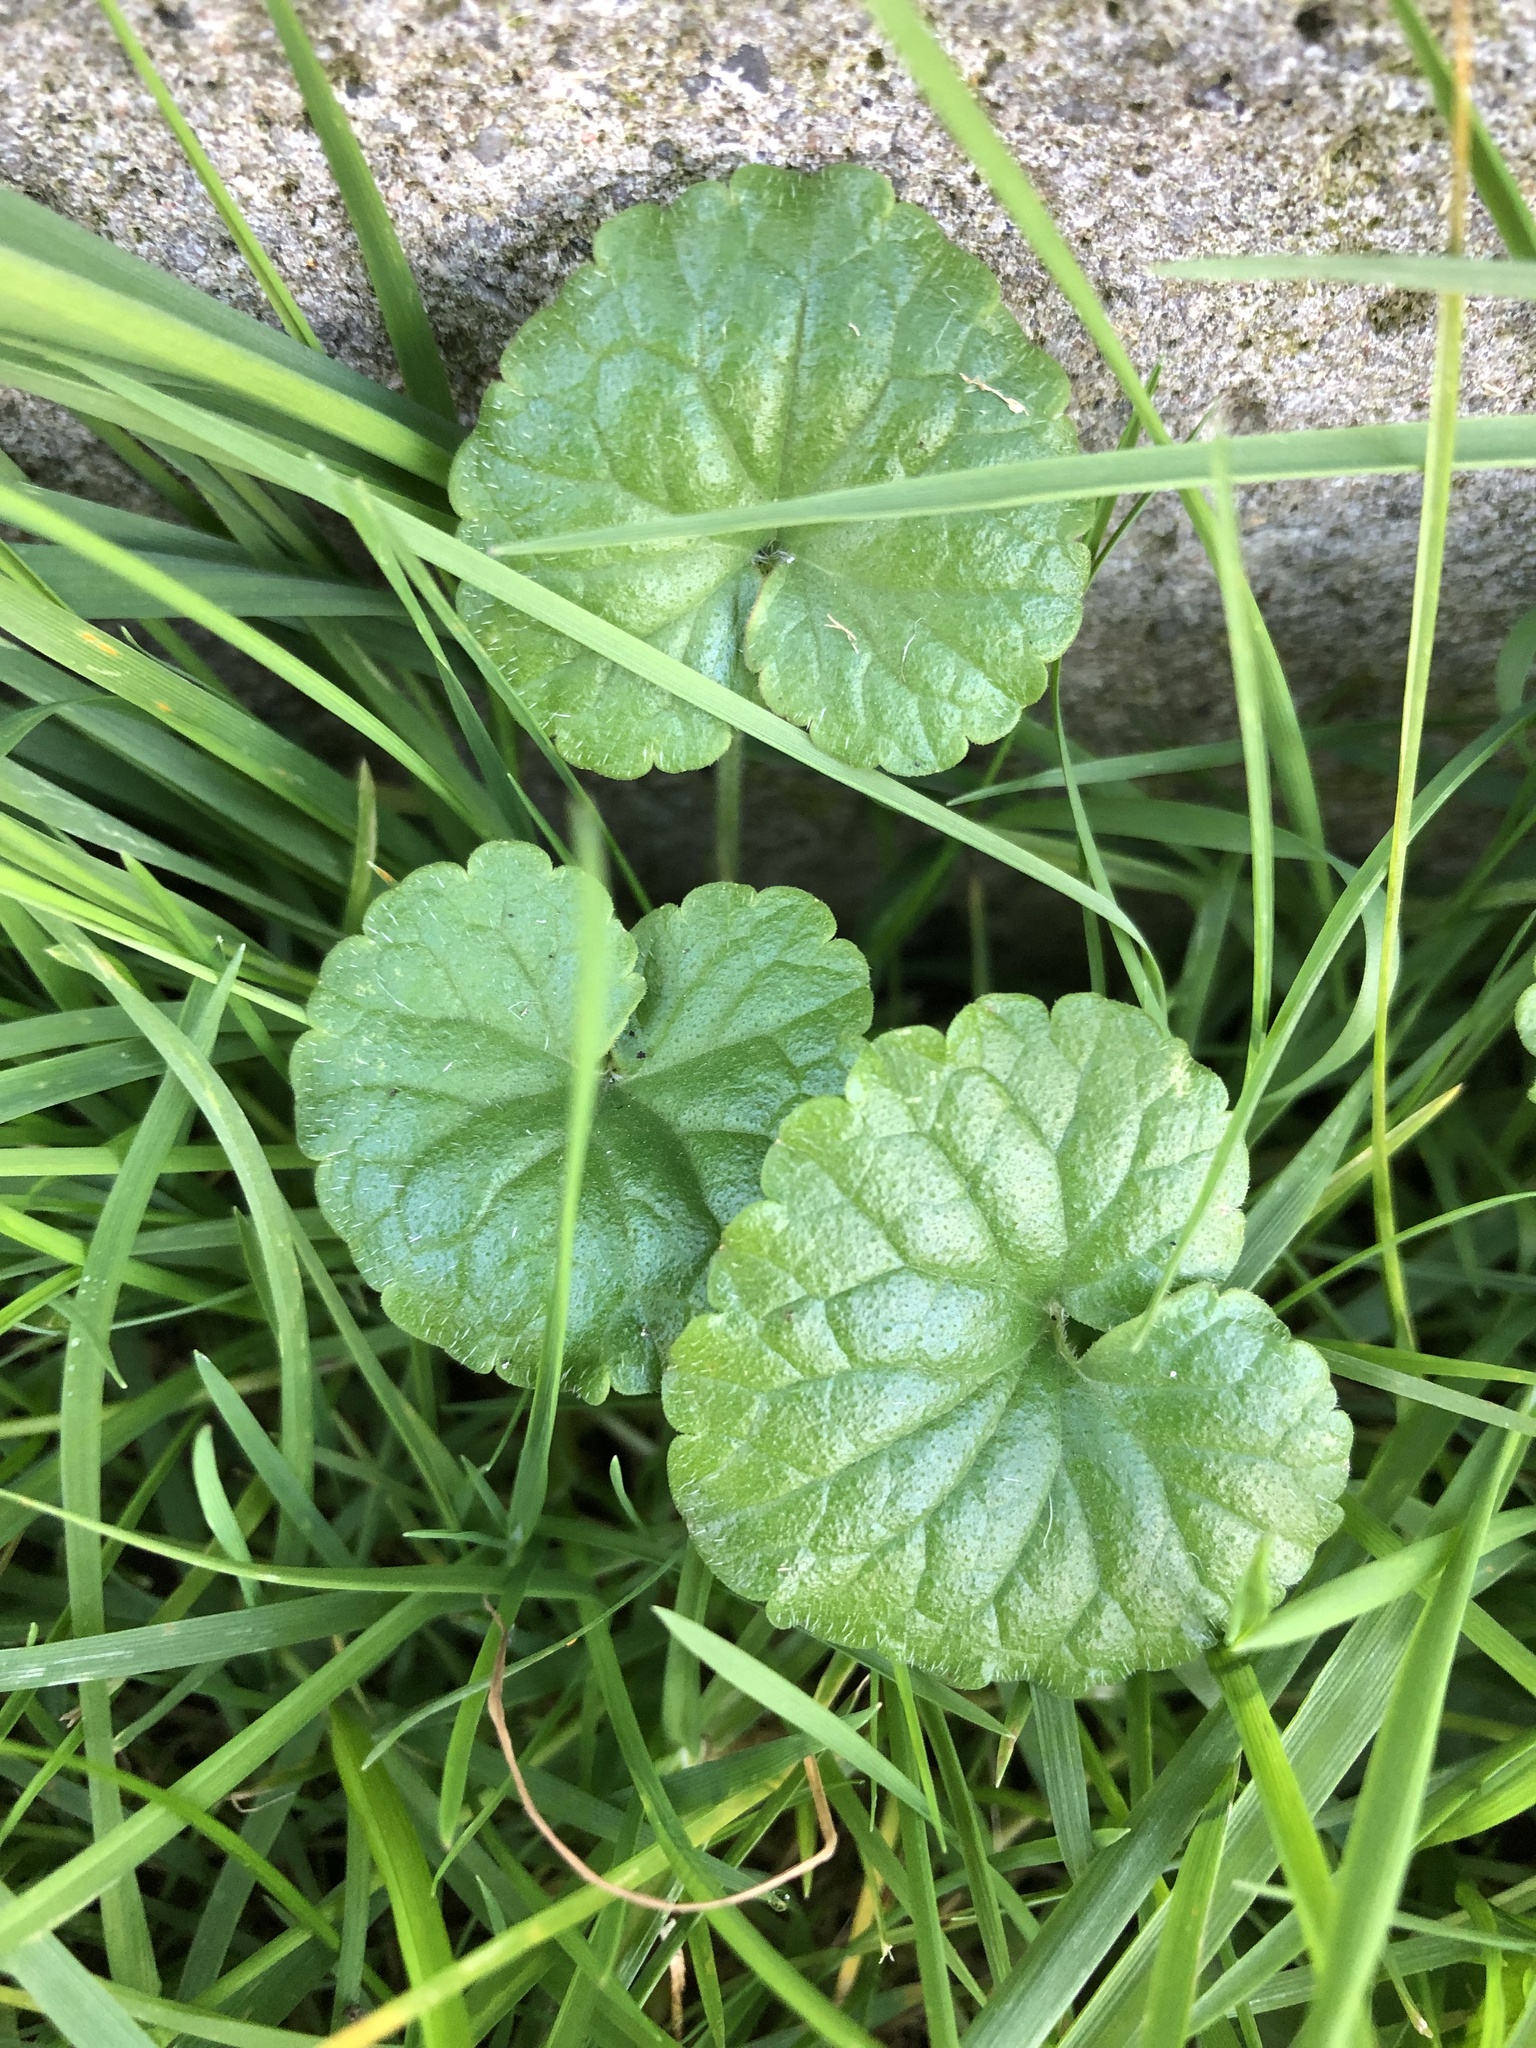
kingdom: Plantae
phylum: Tracheophyta
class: Magnoliopsida
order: Lamiales
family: Lamiaceae
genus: Glechoma
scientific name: Glechoma hederacea
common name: Ground ivy
